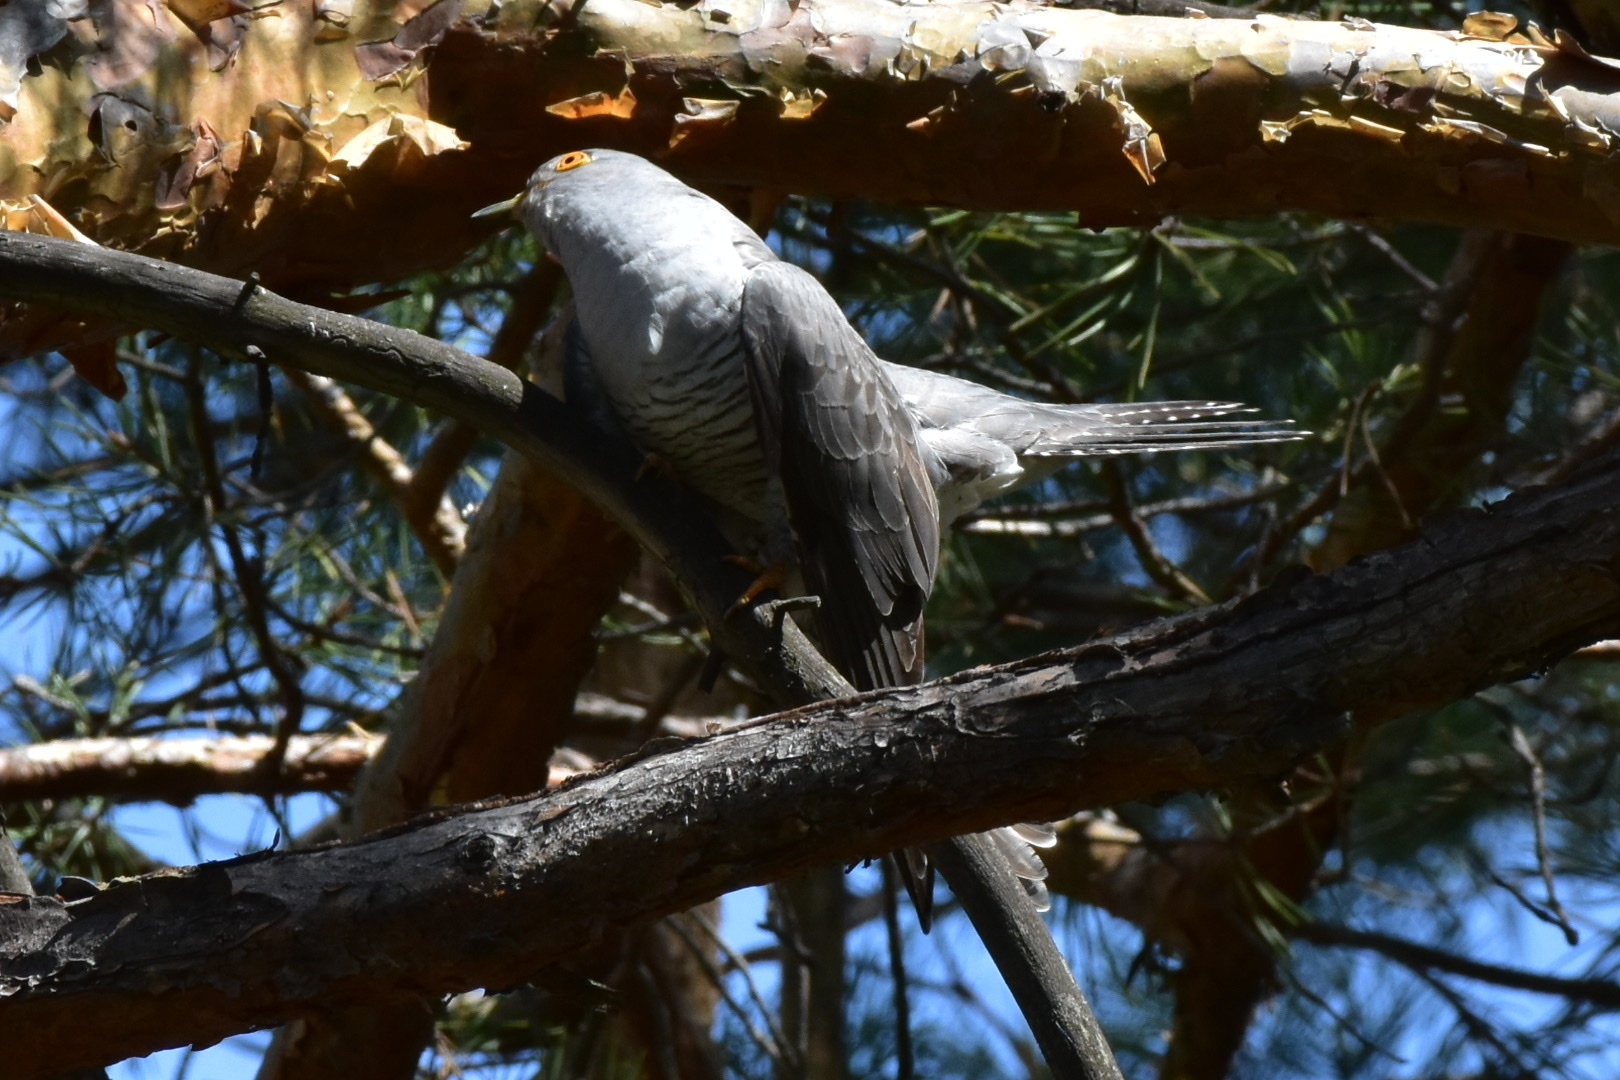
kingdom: Animalia
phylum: Chordata
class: Aves
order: Cuculiformes
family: Cuculidae
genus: Cuculus
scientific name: Cuculus canorus
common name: Common cuckoo
